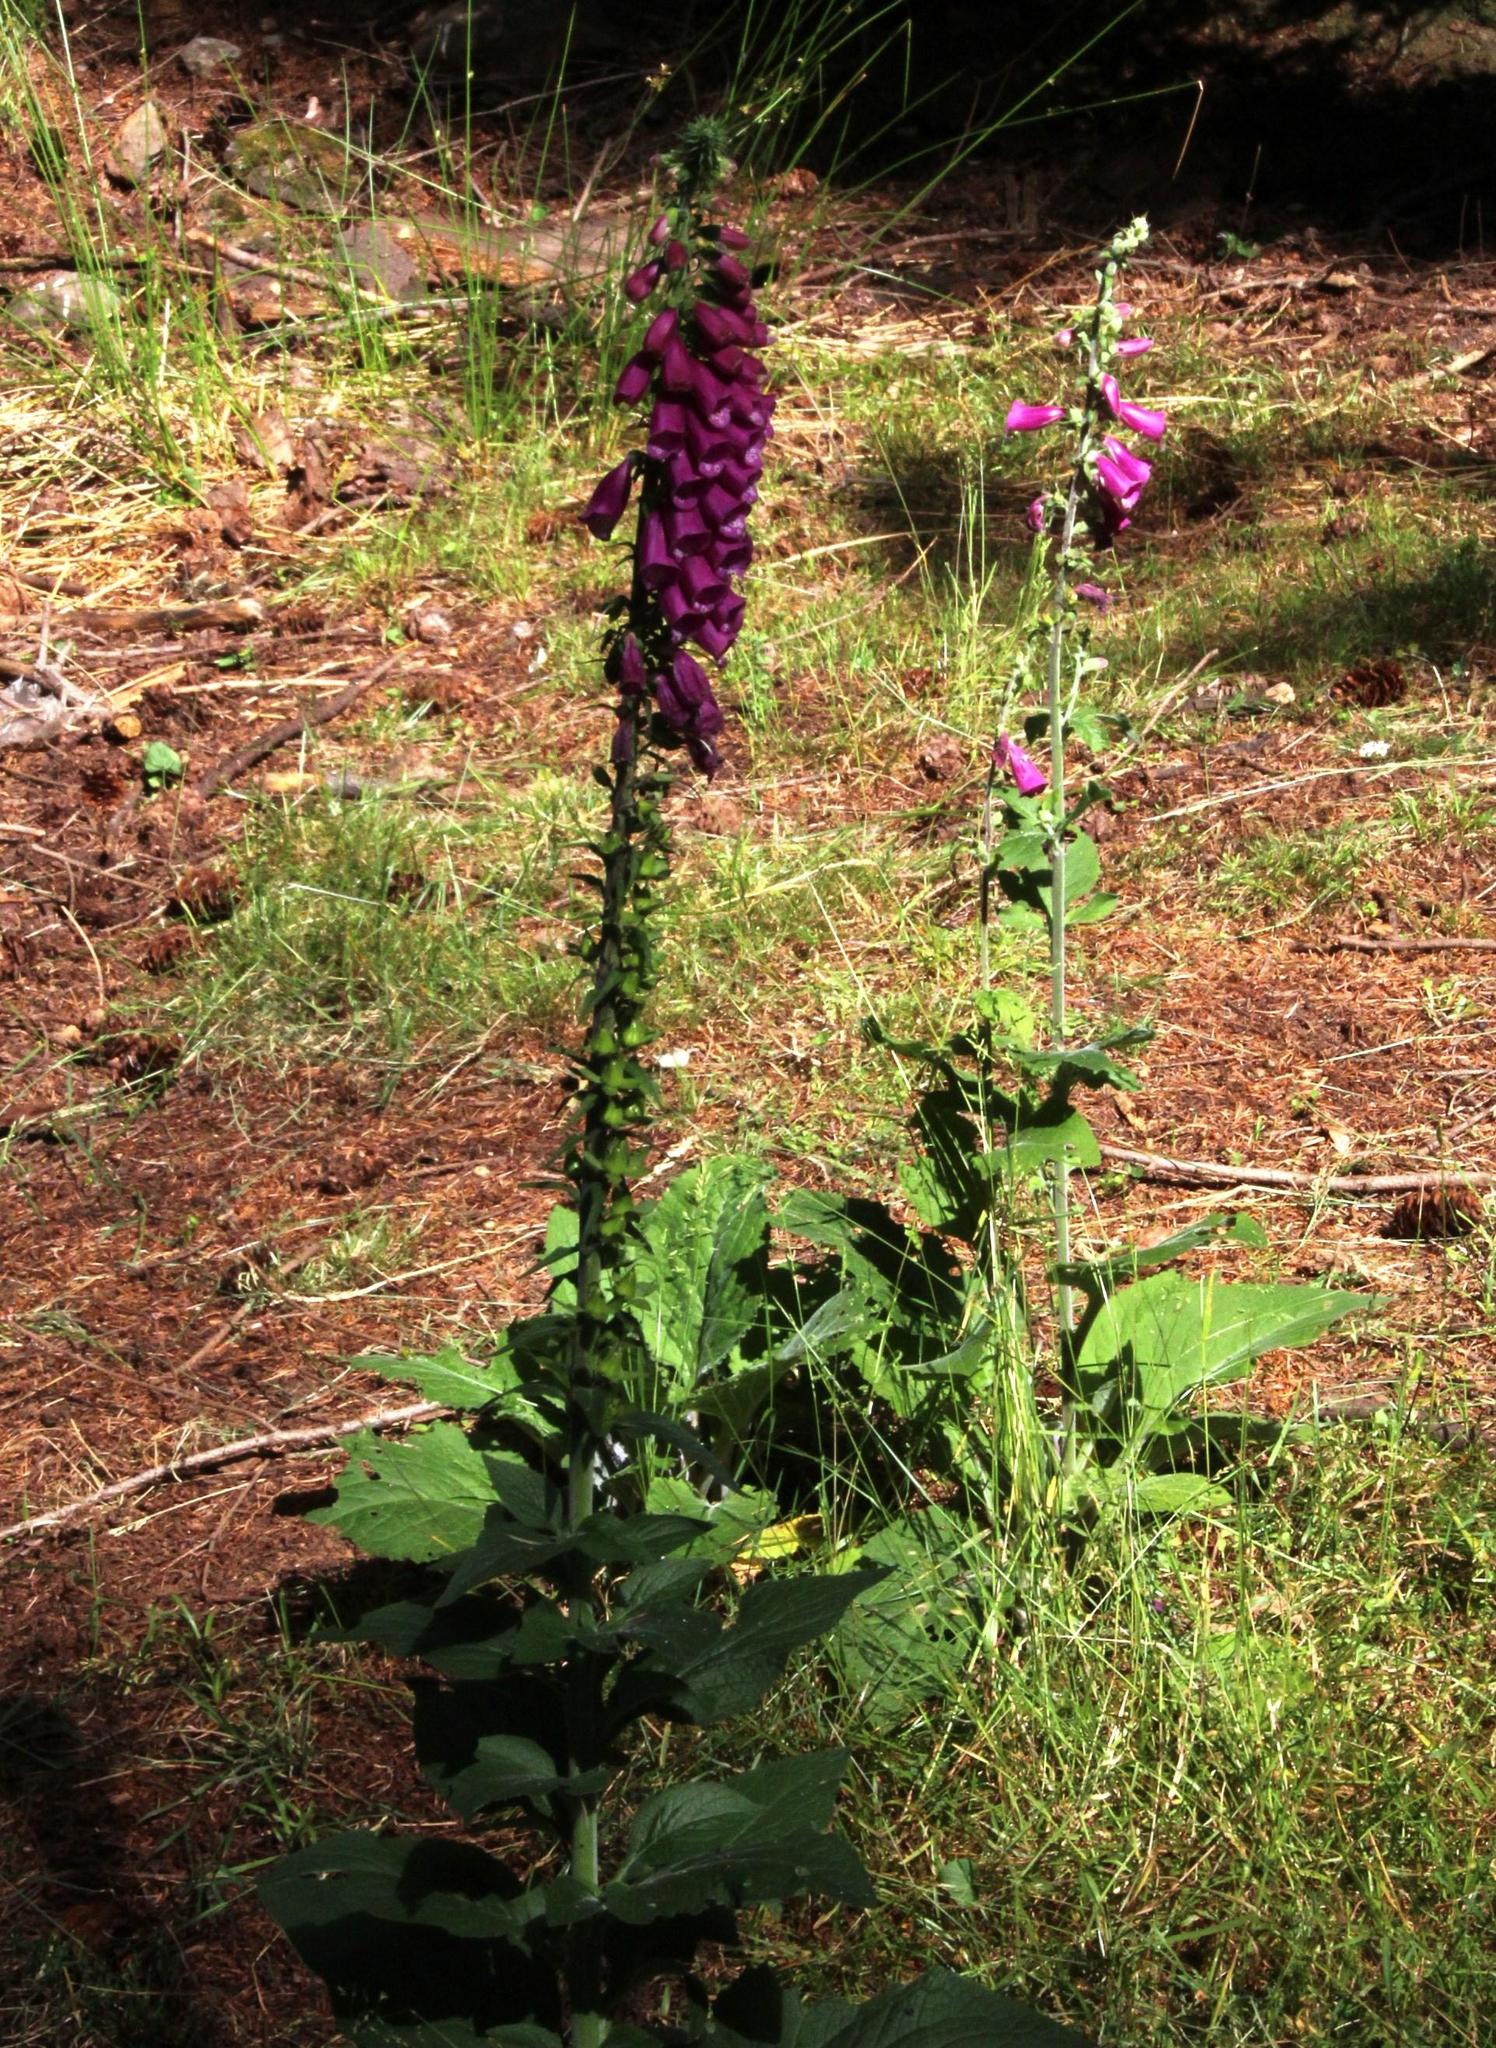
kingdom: Plantae
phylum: Tracheophyta
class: Magnoliopsida
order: Lamiales
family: Plantaginaceae
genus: Digitalis
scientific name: Digitalis purpurea
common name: Foxglove
